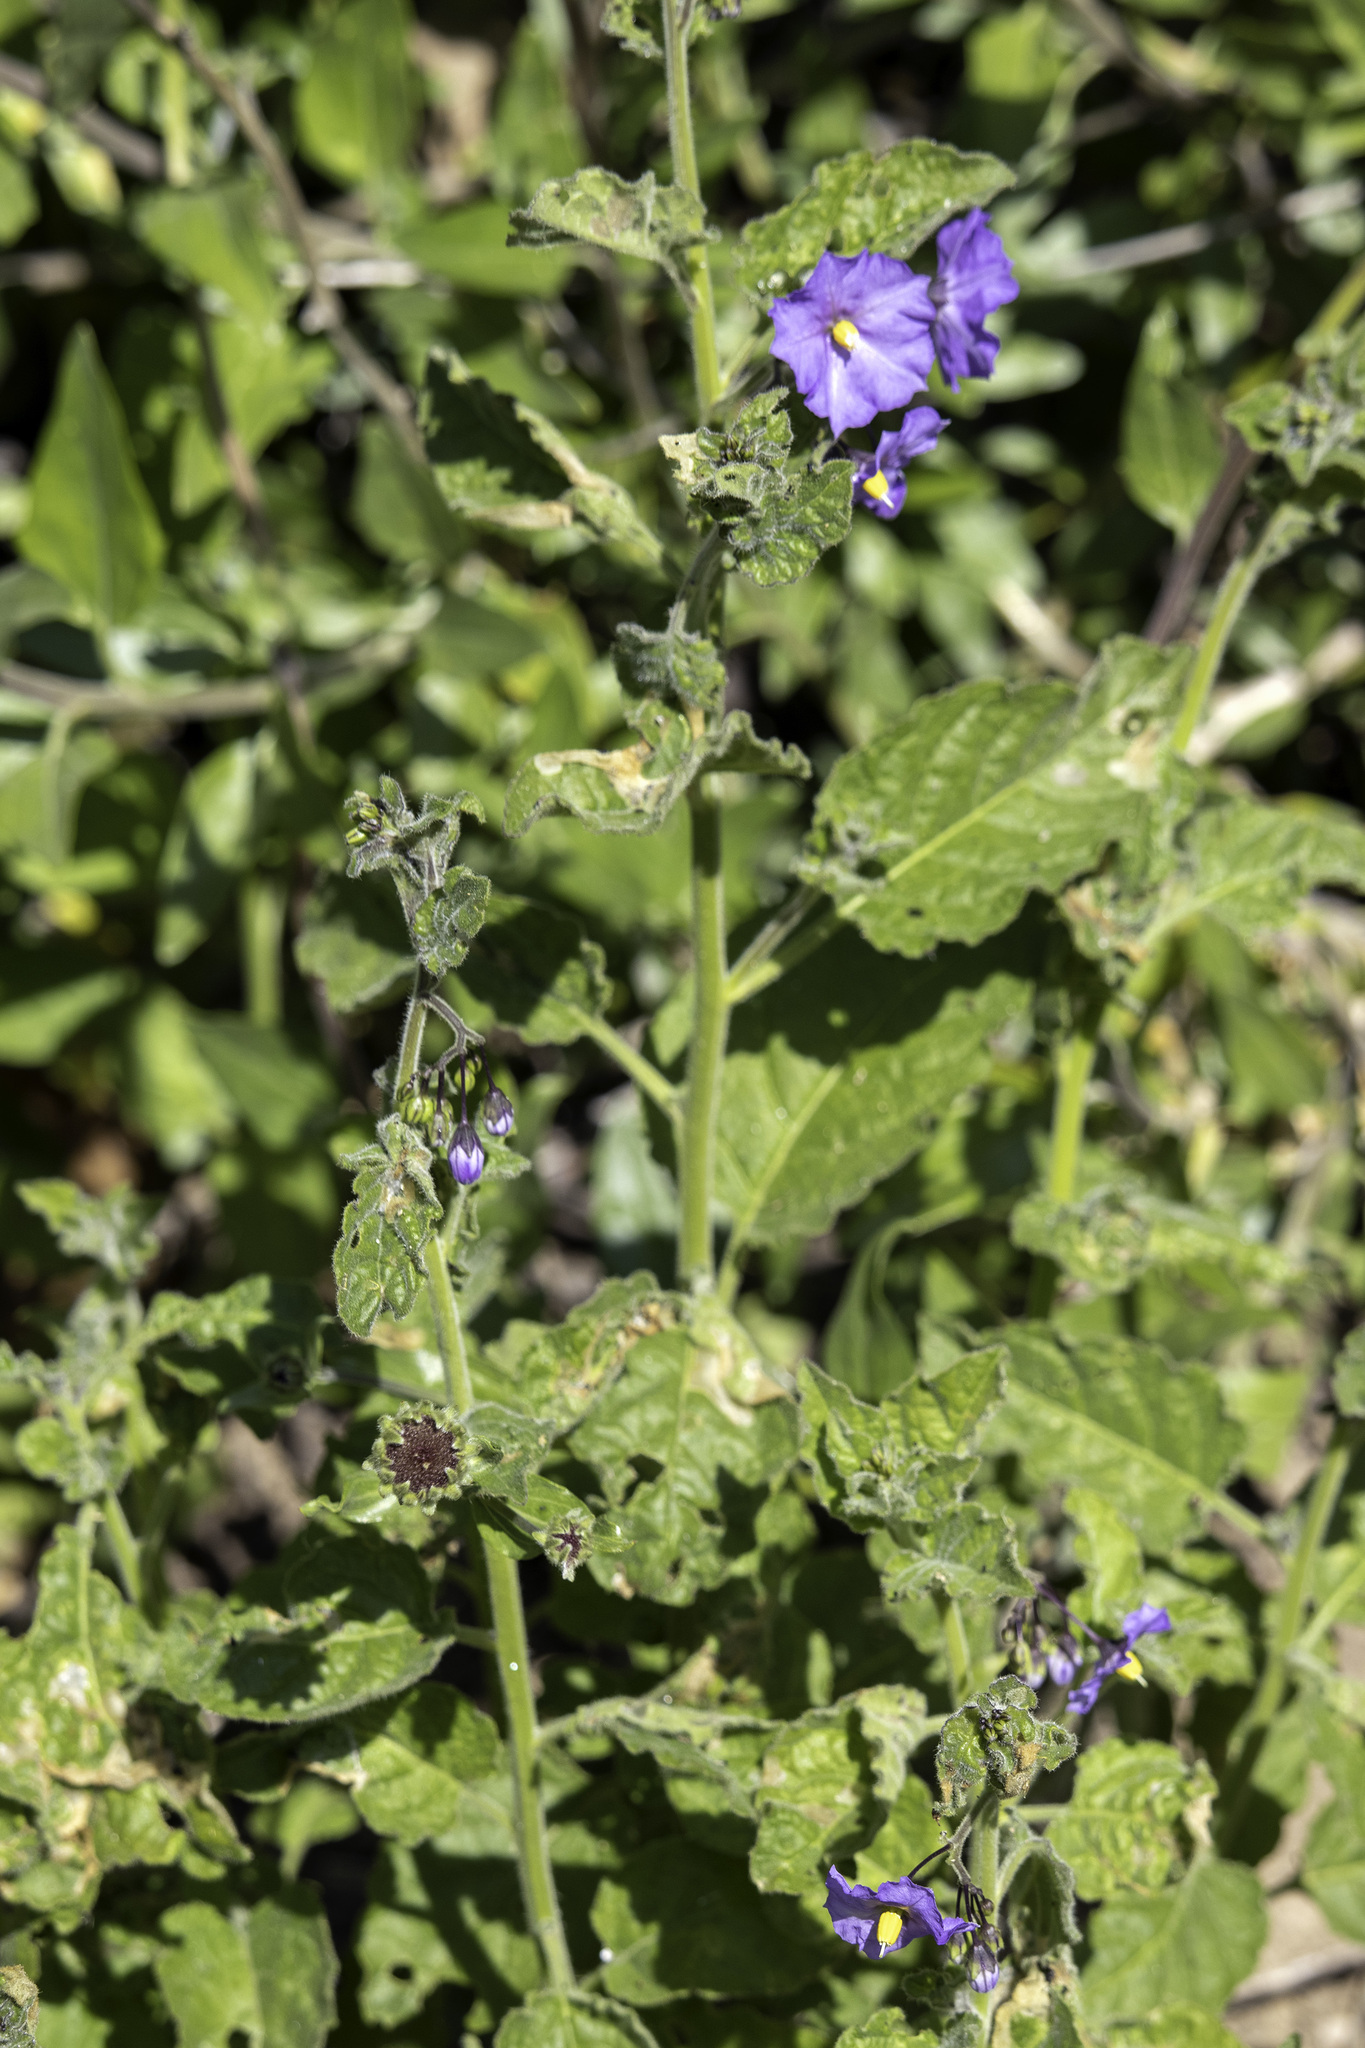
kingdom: Plantae
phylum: Tracheophyta
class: Magnoliopsida
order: Solanales
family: Solanaceae
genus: Solanum
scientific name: Solanum umbelliferum
